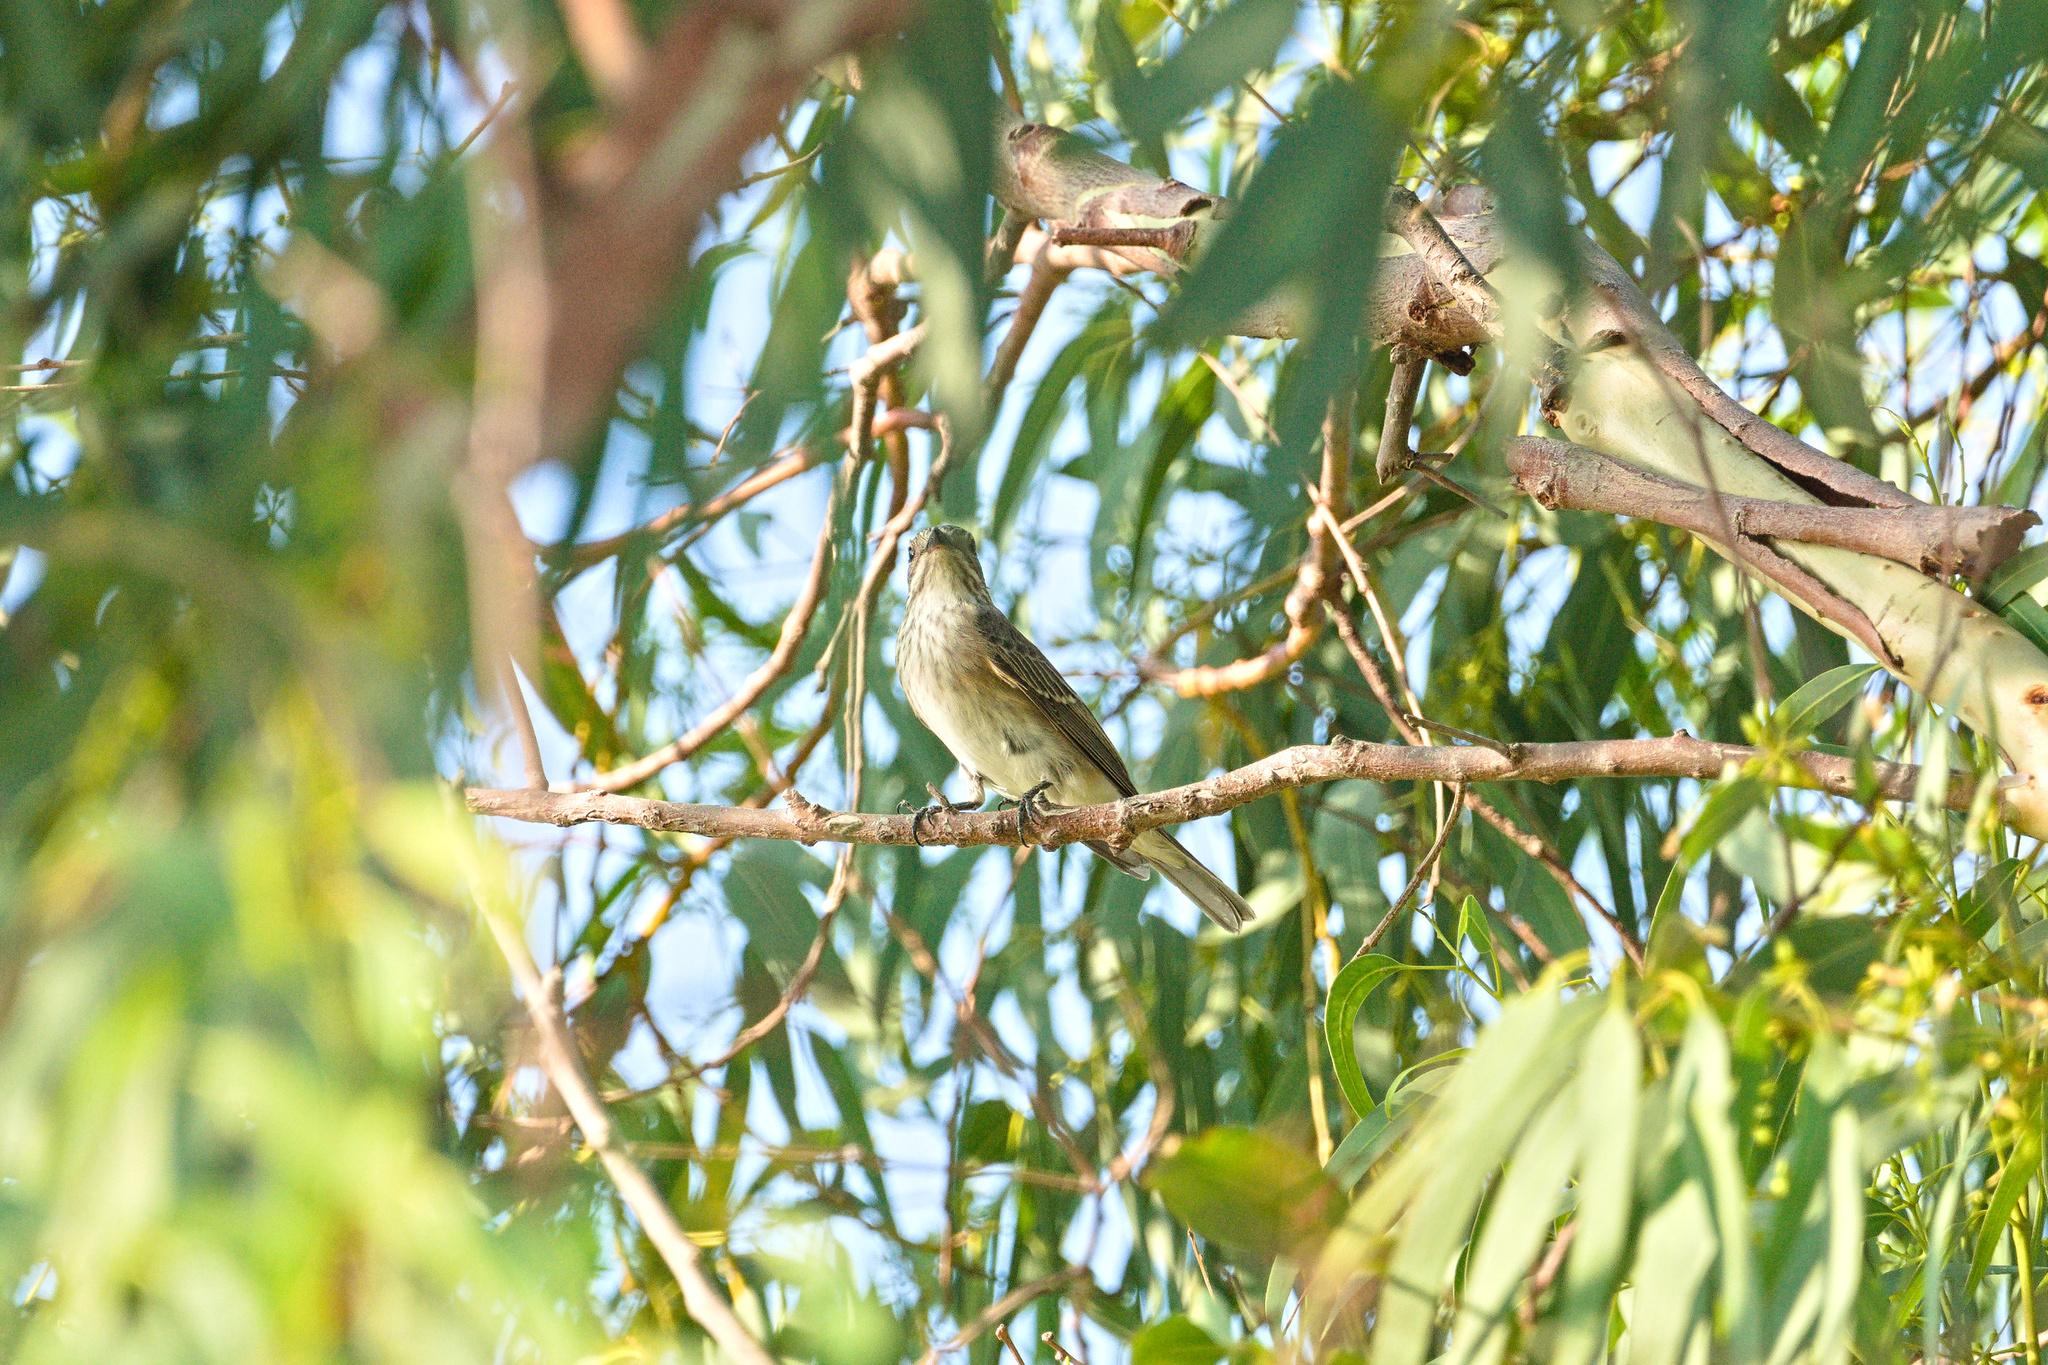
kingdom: Animalia
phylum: Chordata
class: Aves
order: Passeriformes
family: Muscicapidae
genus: Muscicapa
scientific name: Muscicapa striata
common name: Spotted flycatcher
